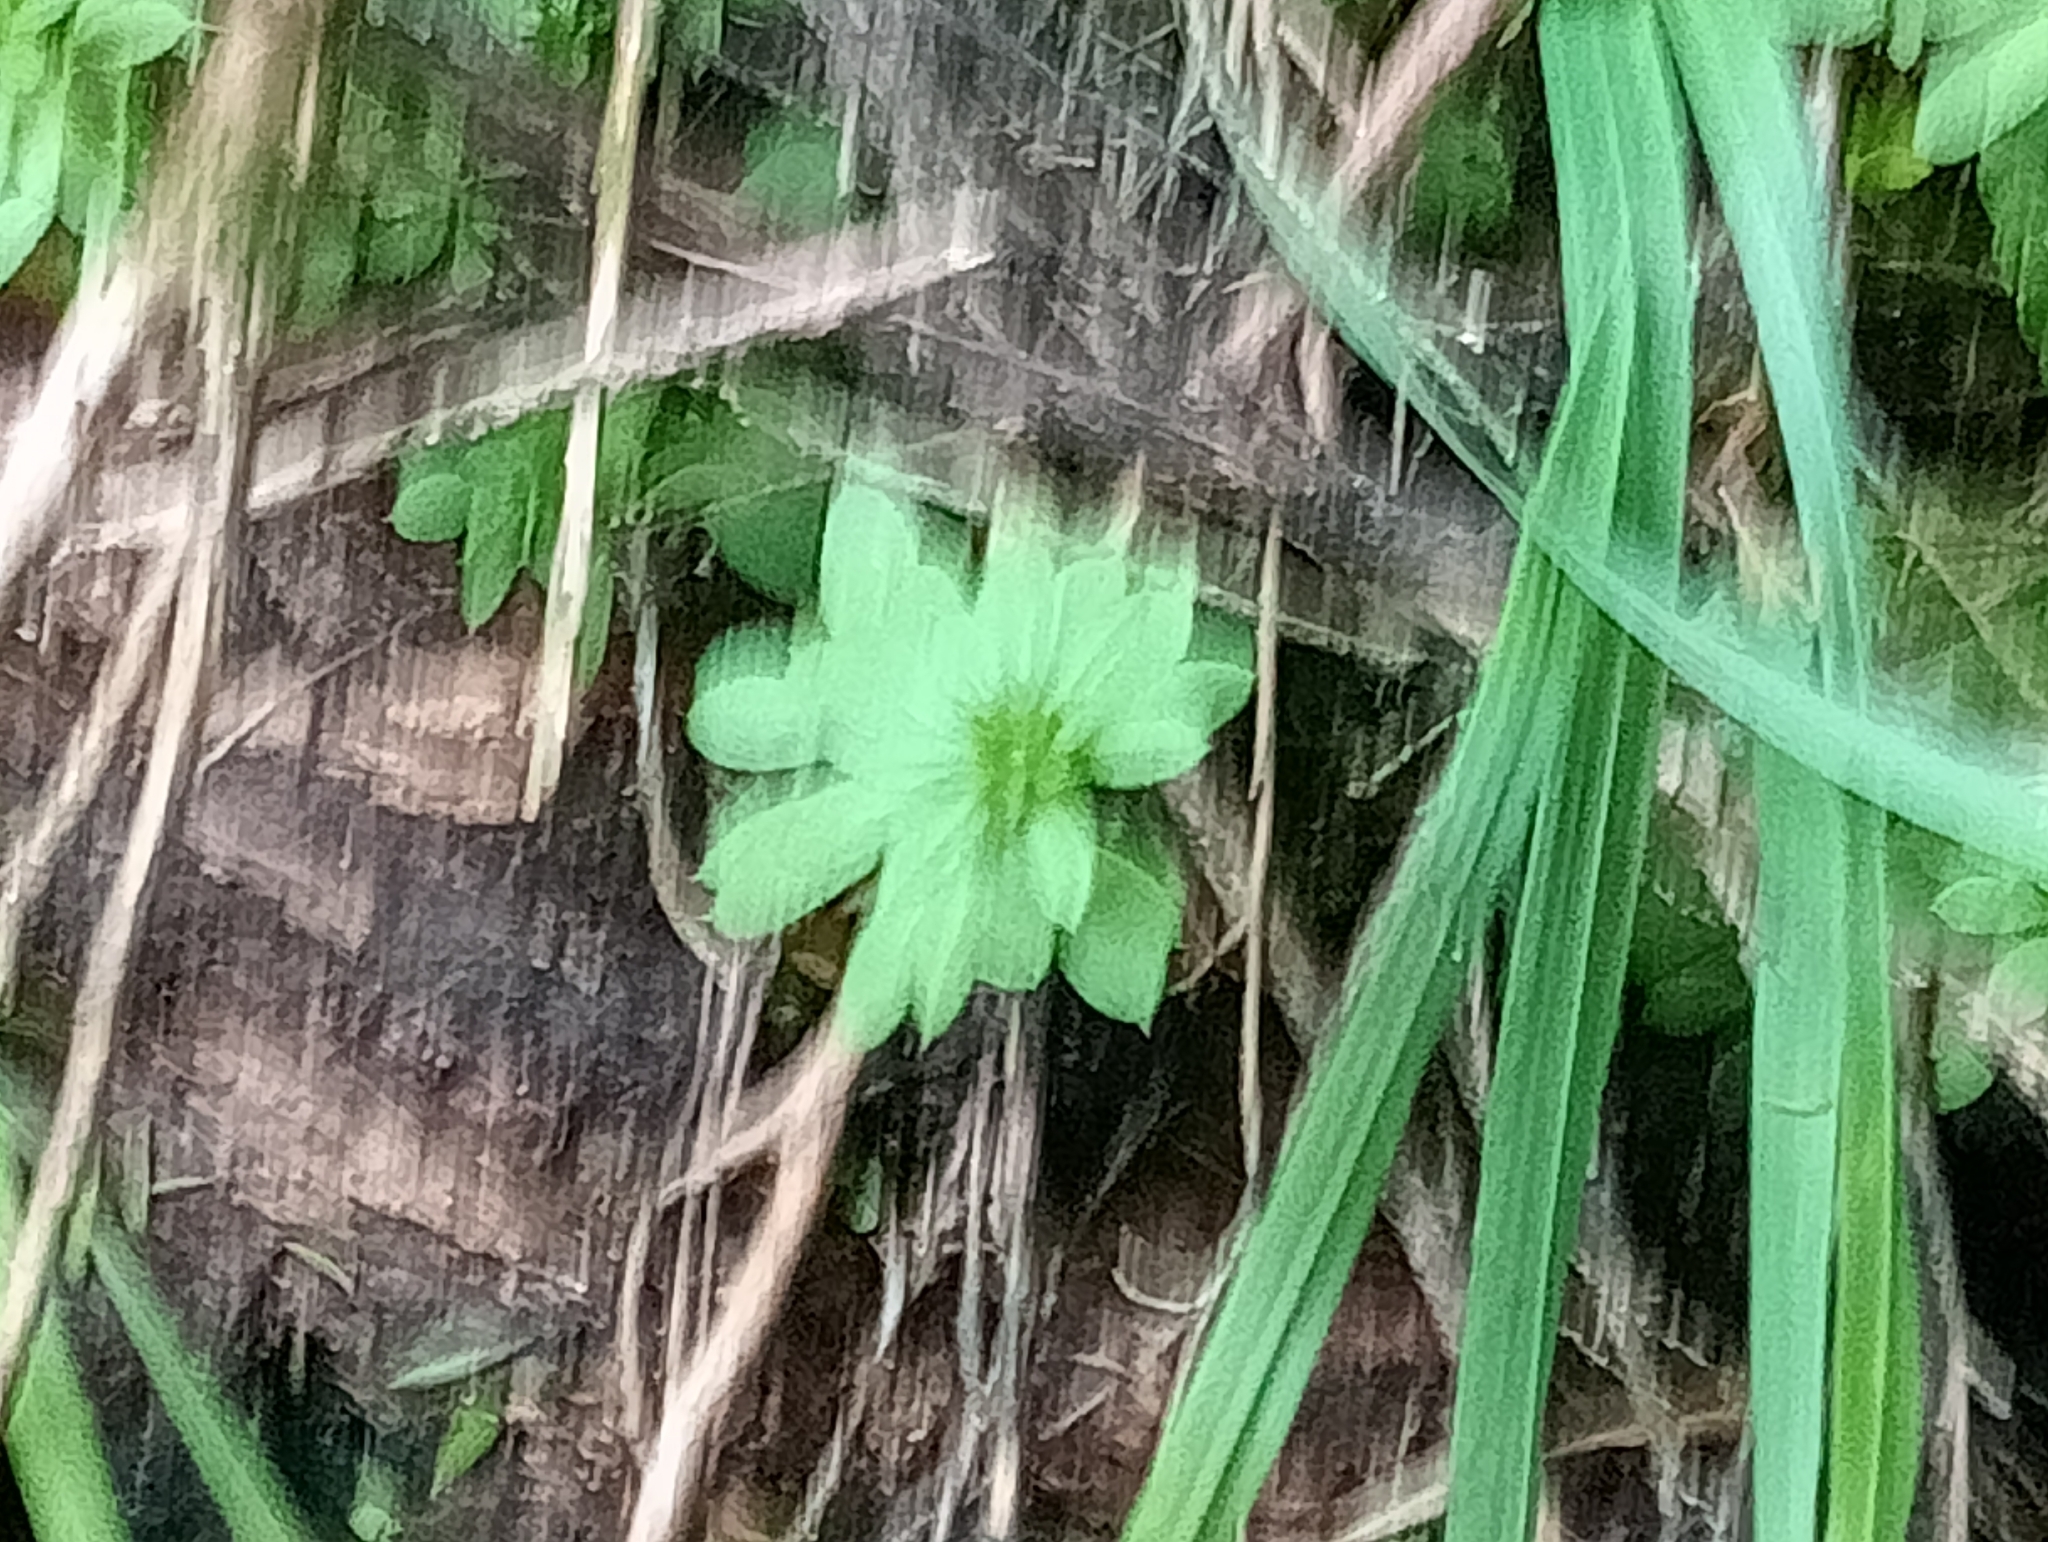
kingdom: Plantae
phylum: Tracheophyta
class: Magnoliopsida
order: Gentianales
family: Rubiaceae
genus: Galium
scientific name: Galium aparine
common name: Cleavers
